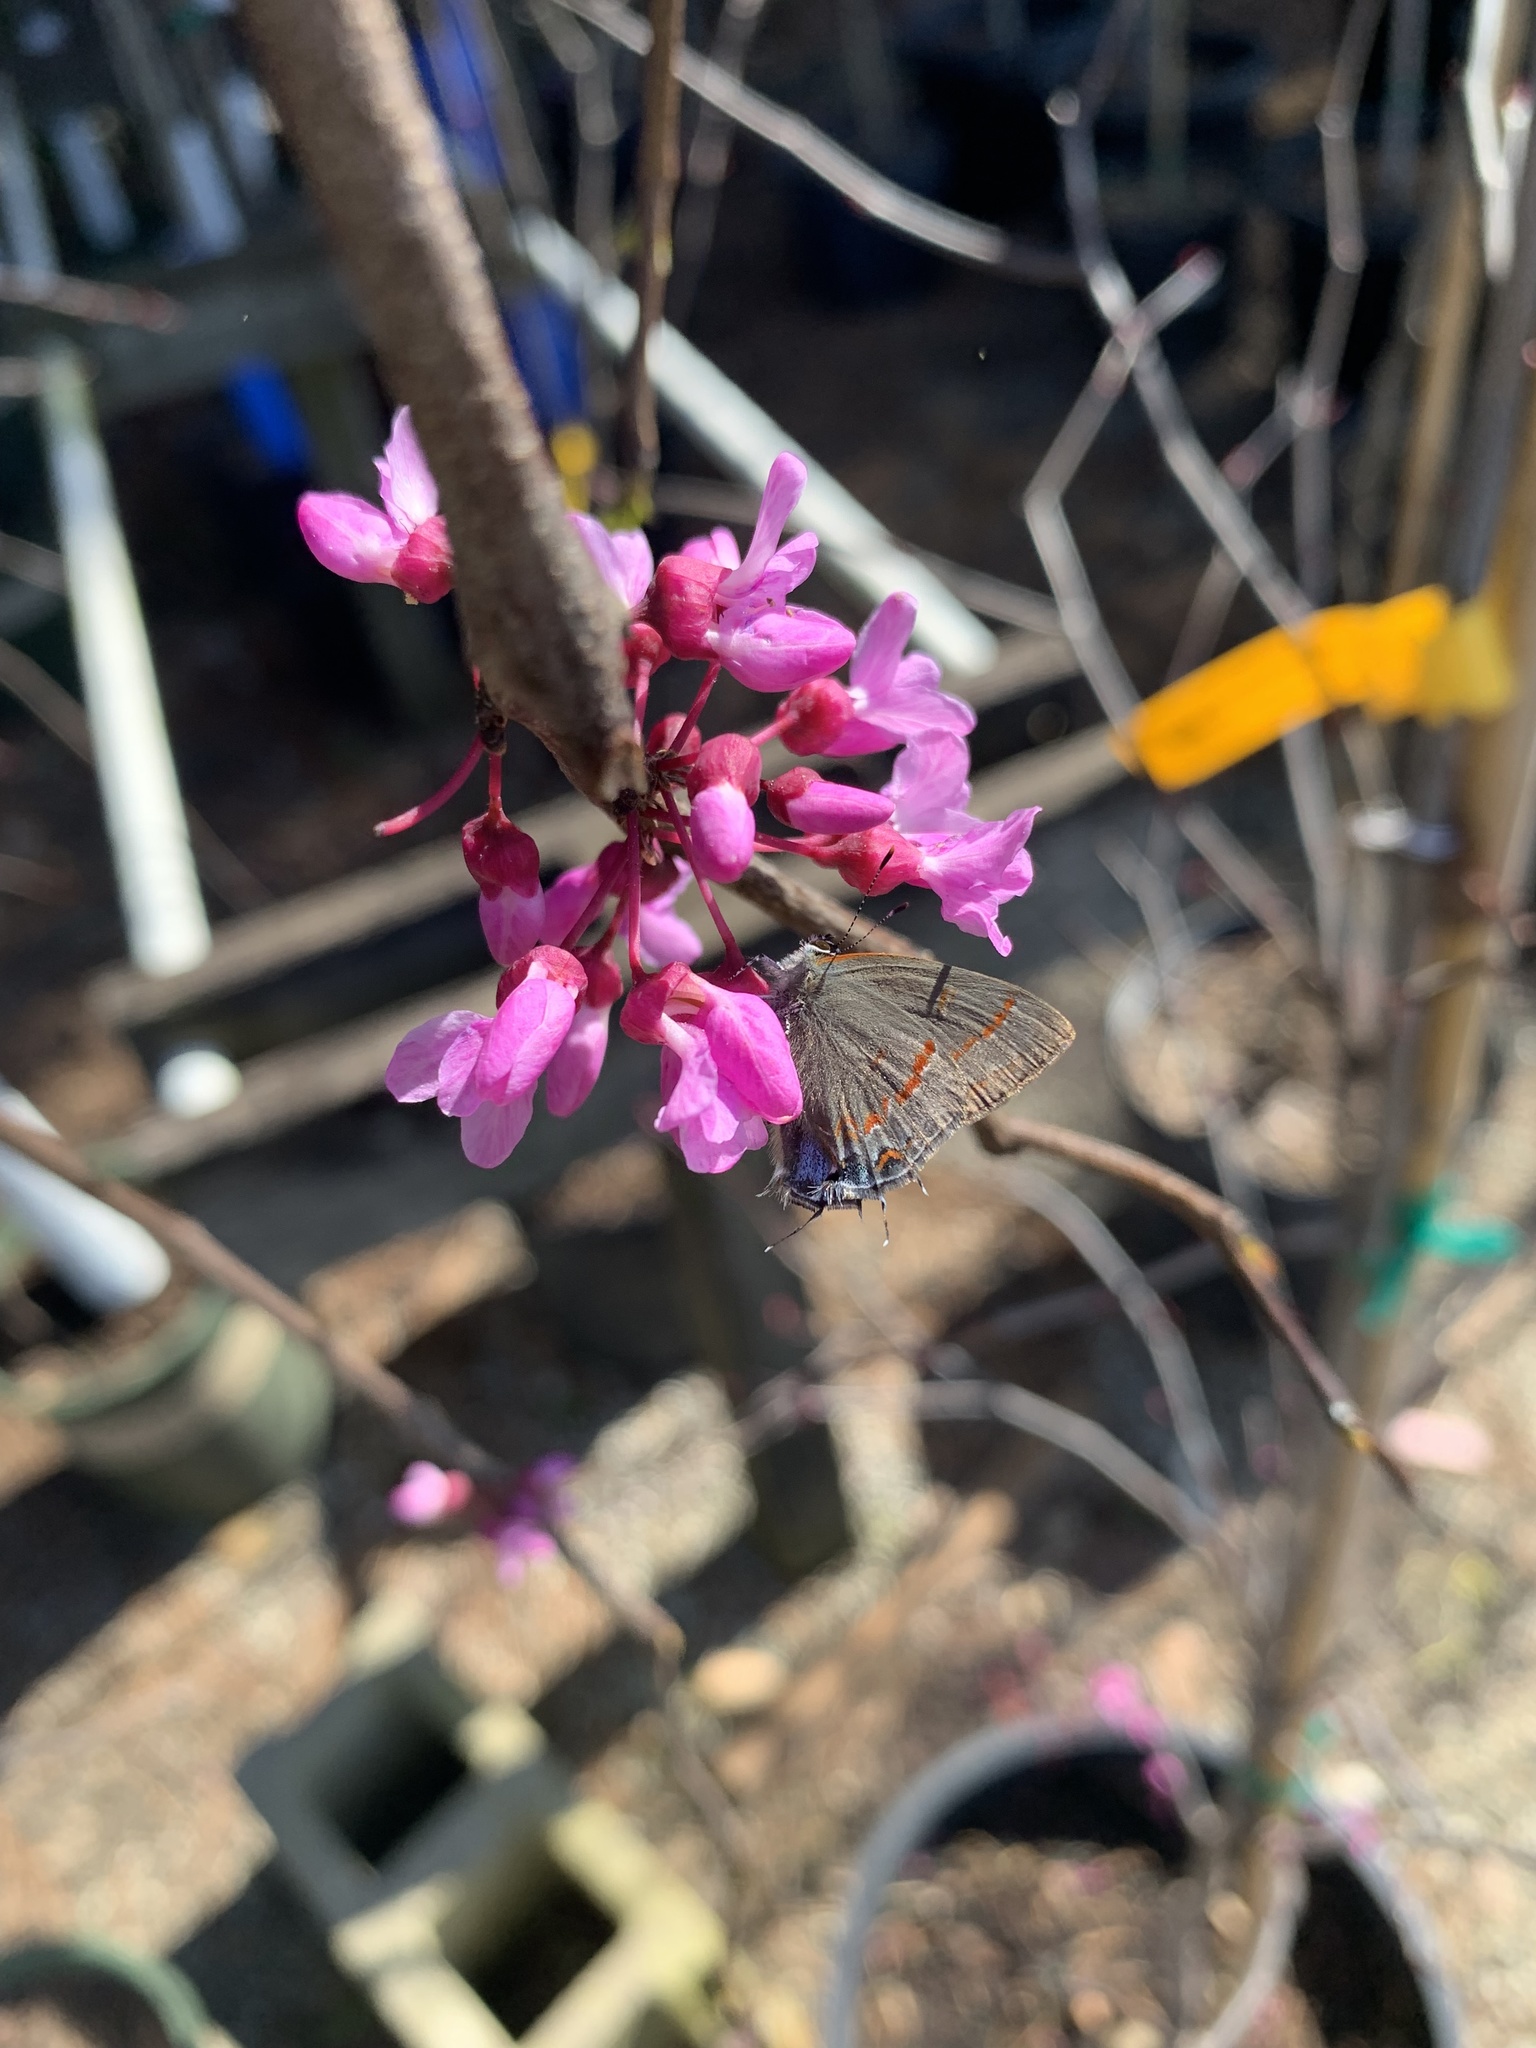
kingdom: Animalia
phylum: Arthropoda
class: Insecta
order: Lepidoptera
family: Lycaenidae
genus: Calycopis
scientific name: Calycopis cecrops
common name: Red-banded hairstreak
